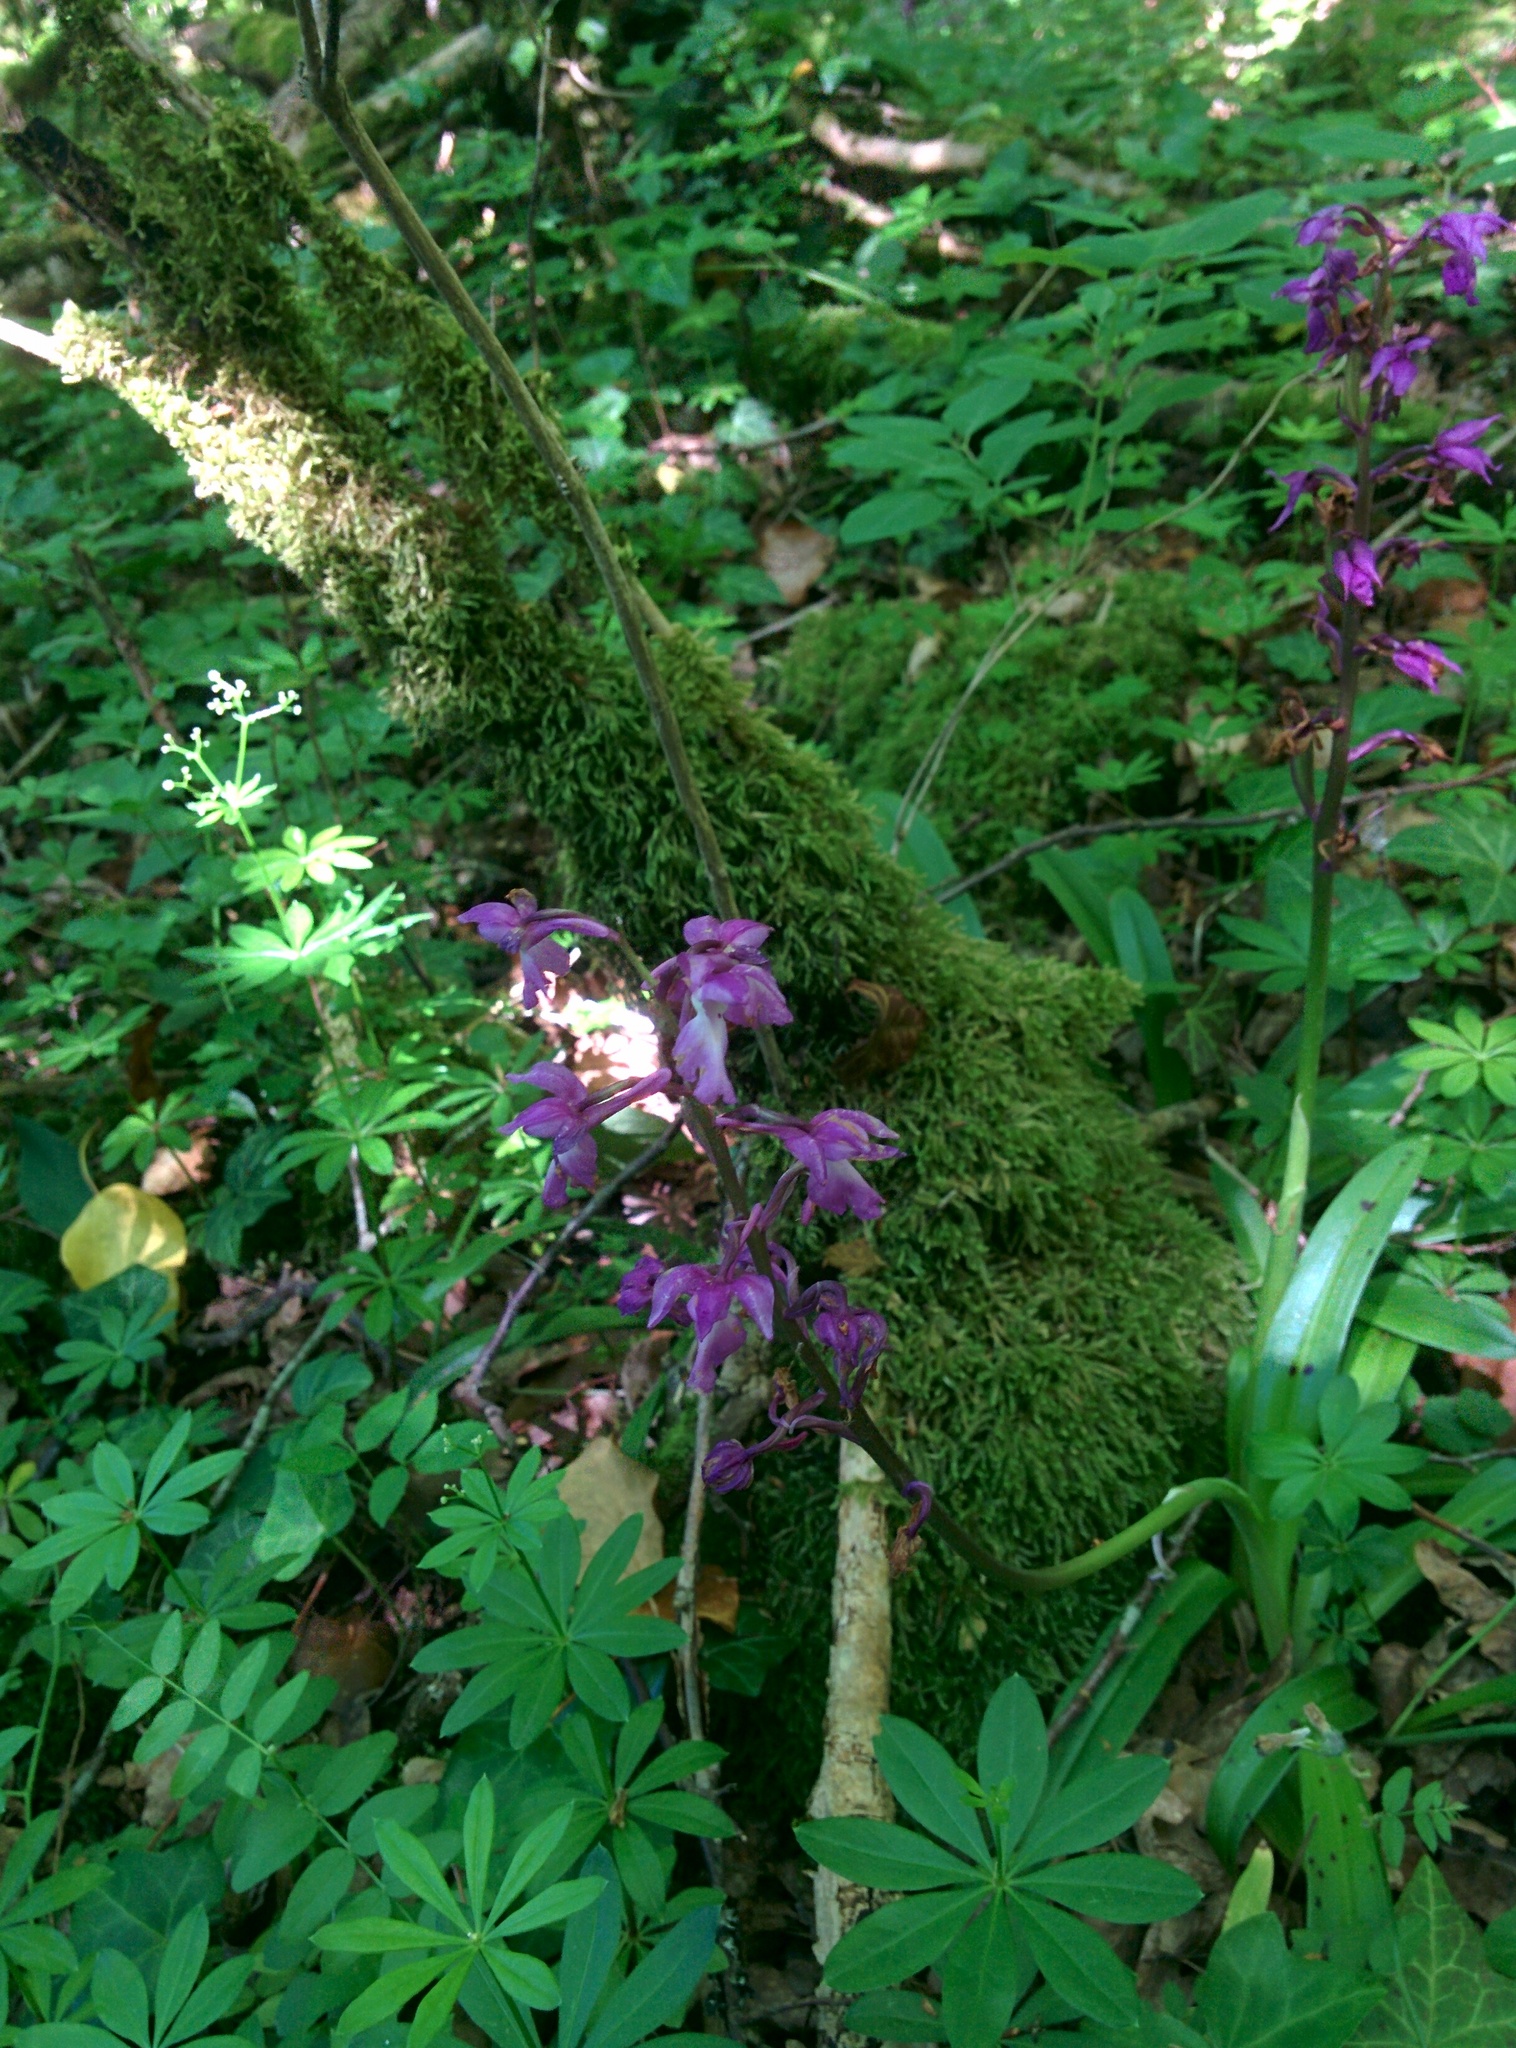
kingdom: Plantae
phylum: Tracheophyta
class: Liliopsida
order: Asparagales
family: Orchidaceae
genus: Orchis
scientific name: Orchis mascula
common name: Early-purple orchid
